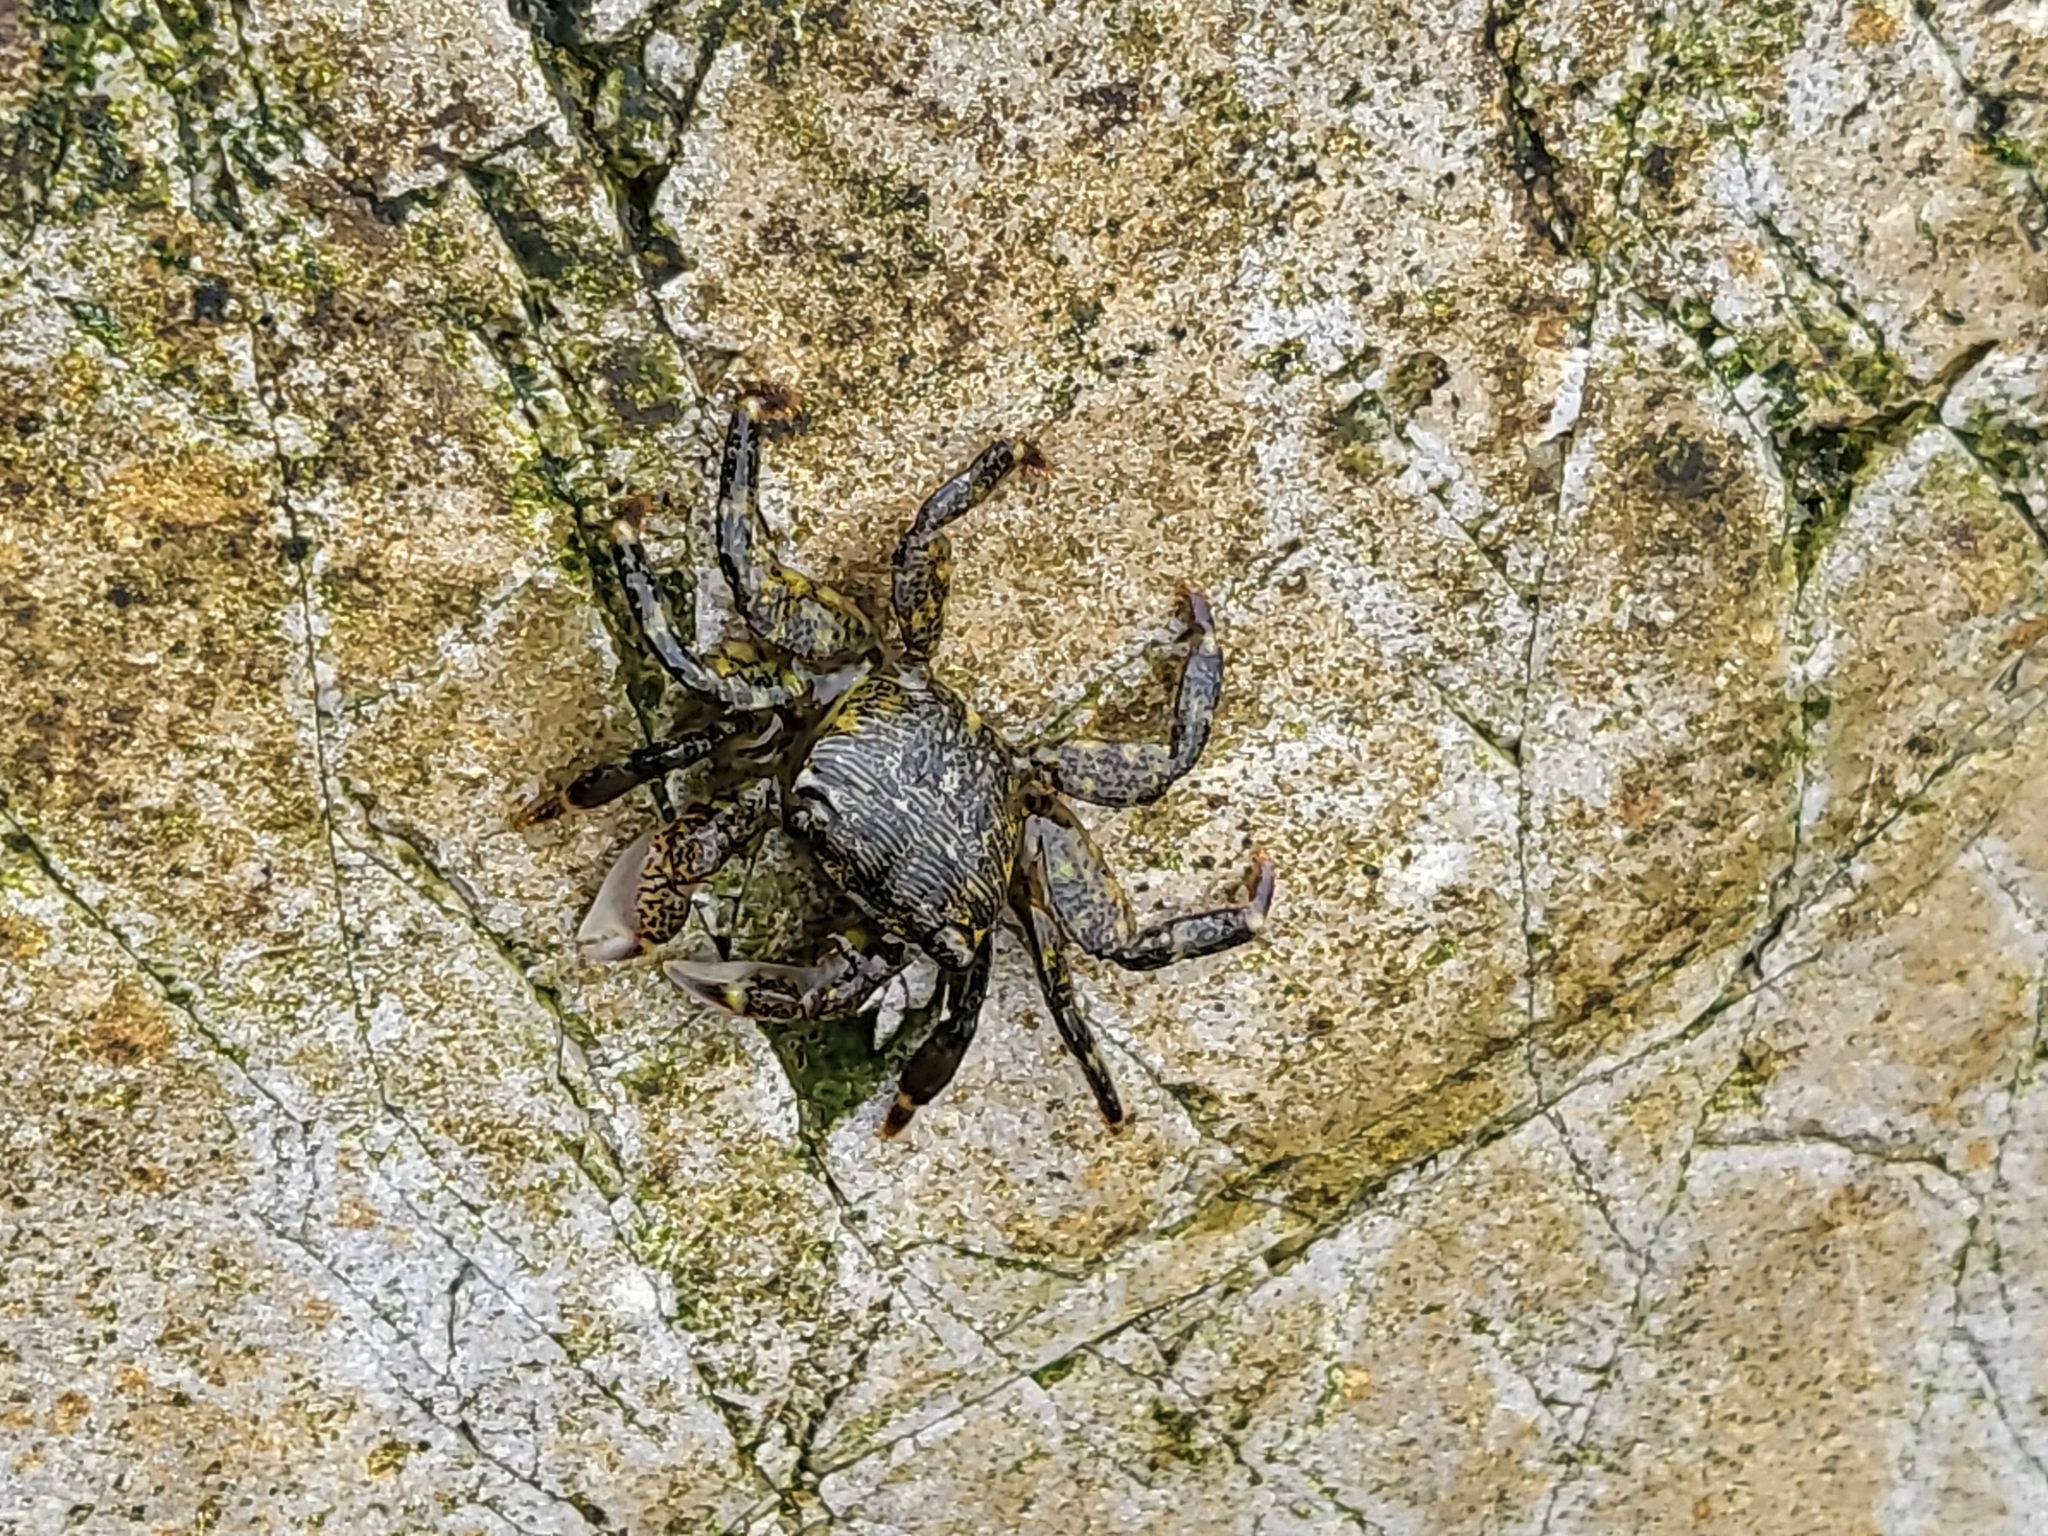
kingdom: Animalia
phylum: Arthropoda
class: Malacostraca
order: Decapoda
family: Grapsidae
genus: Pachygrapsus
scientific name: Pachygrapsus crassipes
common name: Striped shore crab
